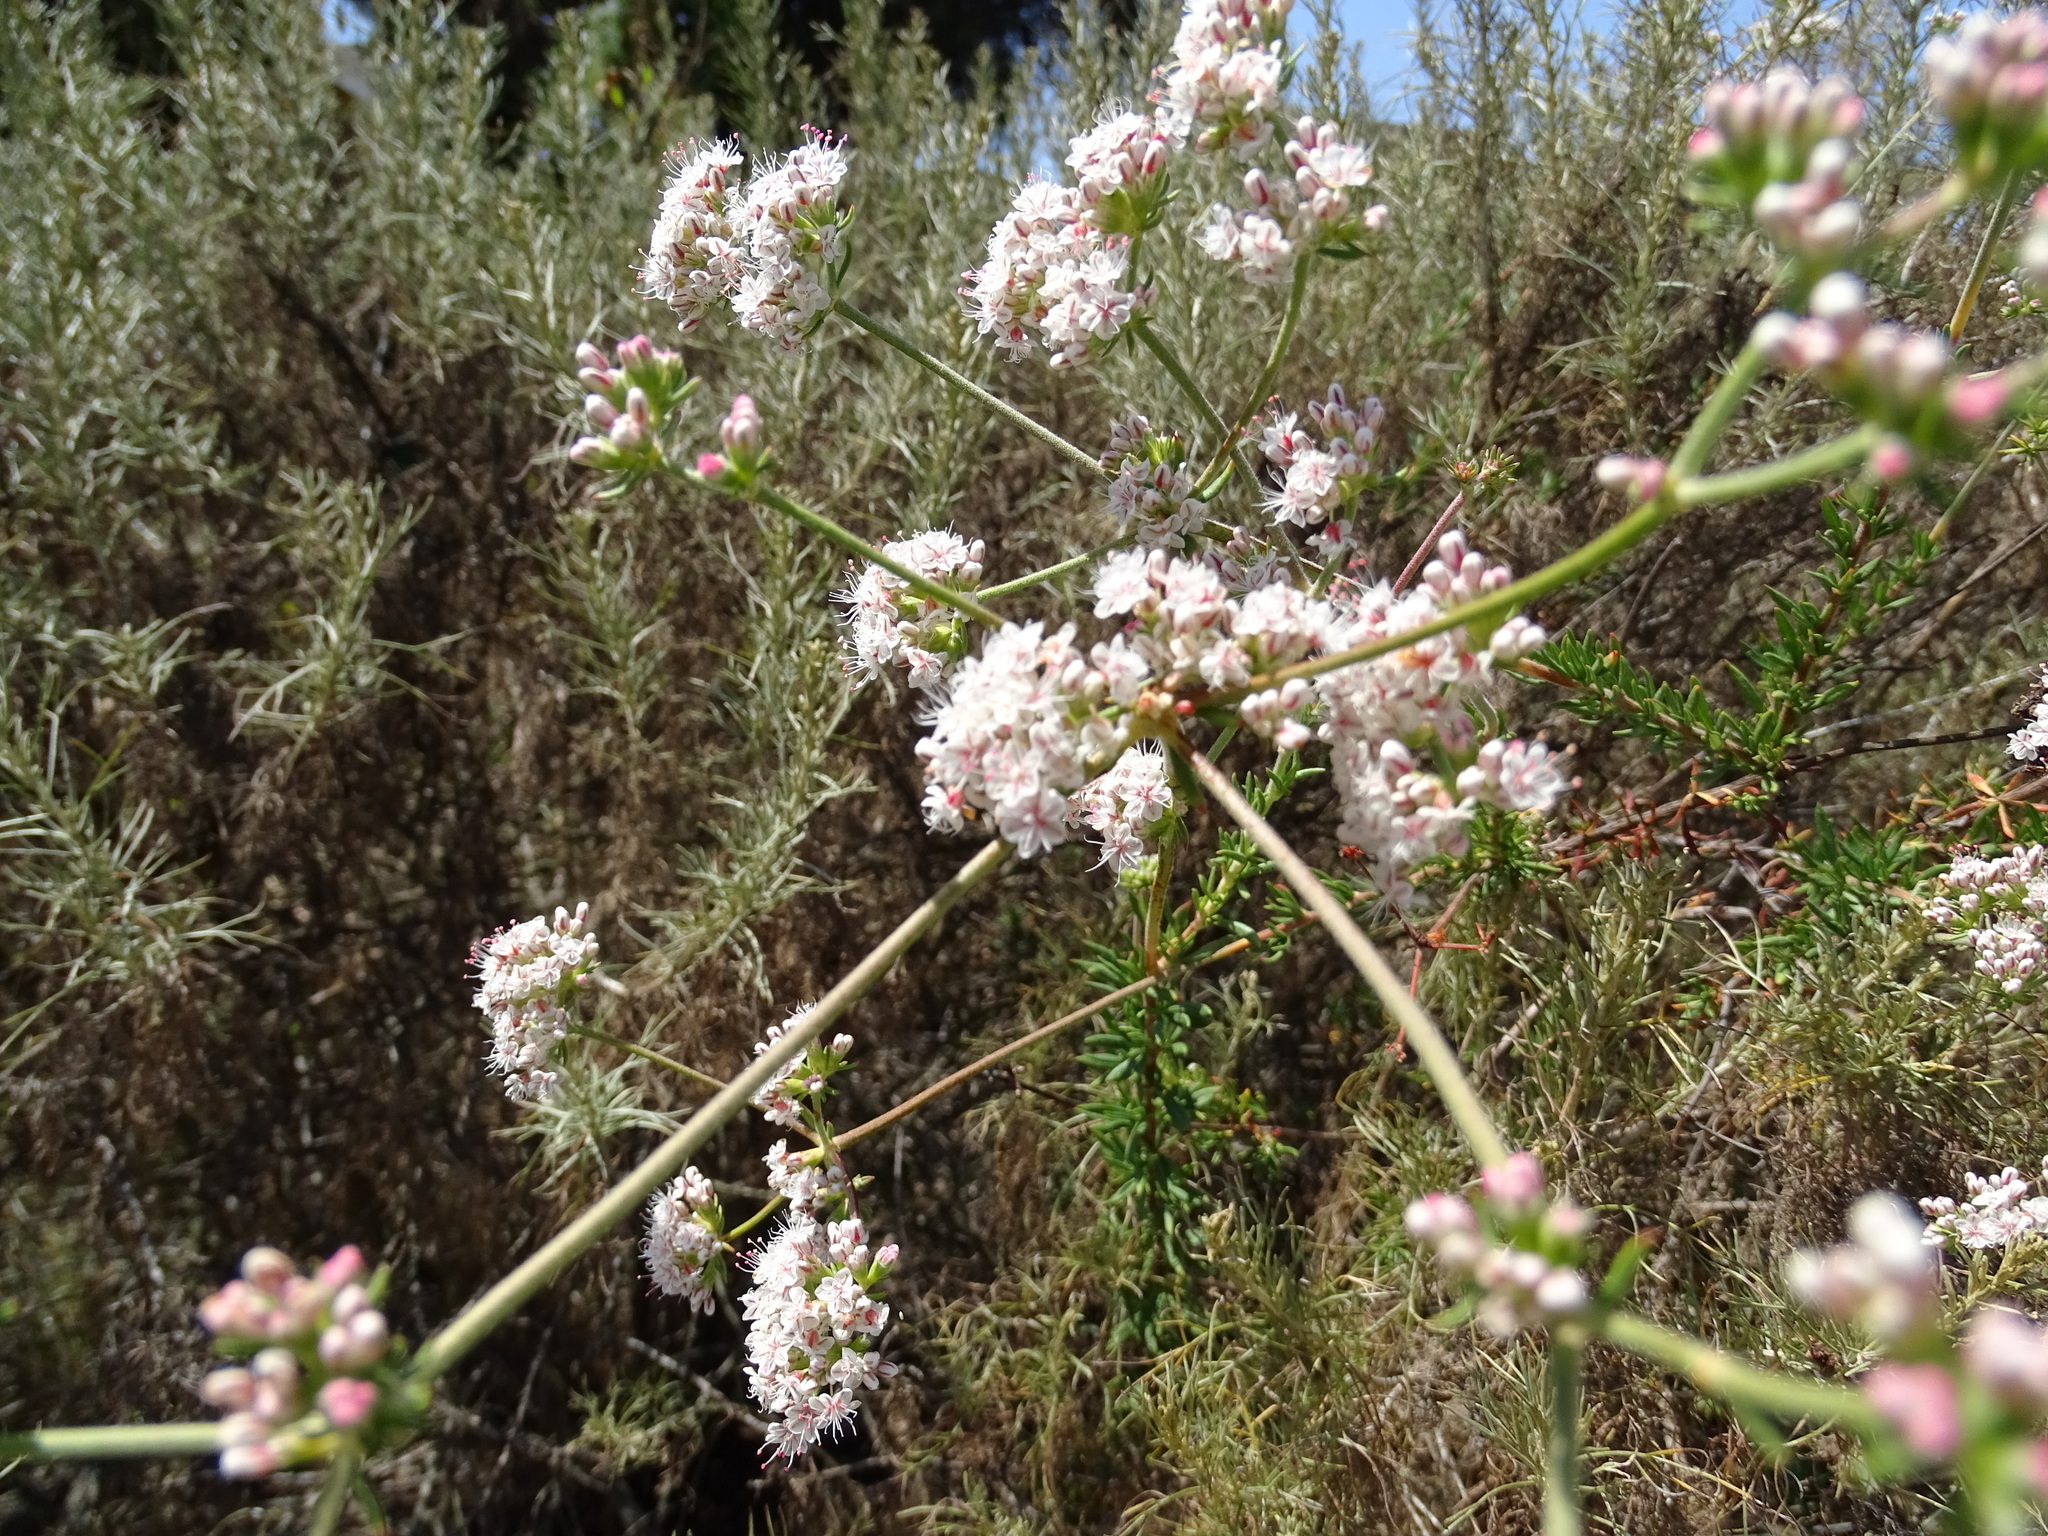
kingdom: Plantae
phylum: Tracheophyta
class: Magnoliopsida
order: Caryophyllales
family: Polygonaceae
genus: Eriogonum
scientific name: Eriogonum fasciculatum
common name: California wild buckwheat
